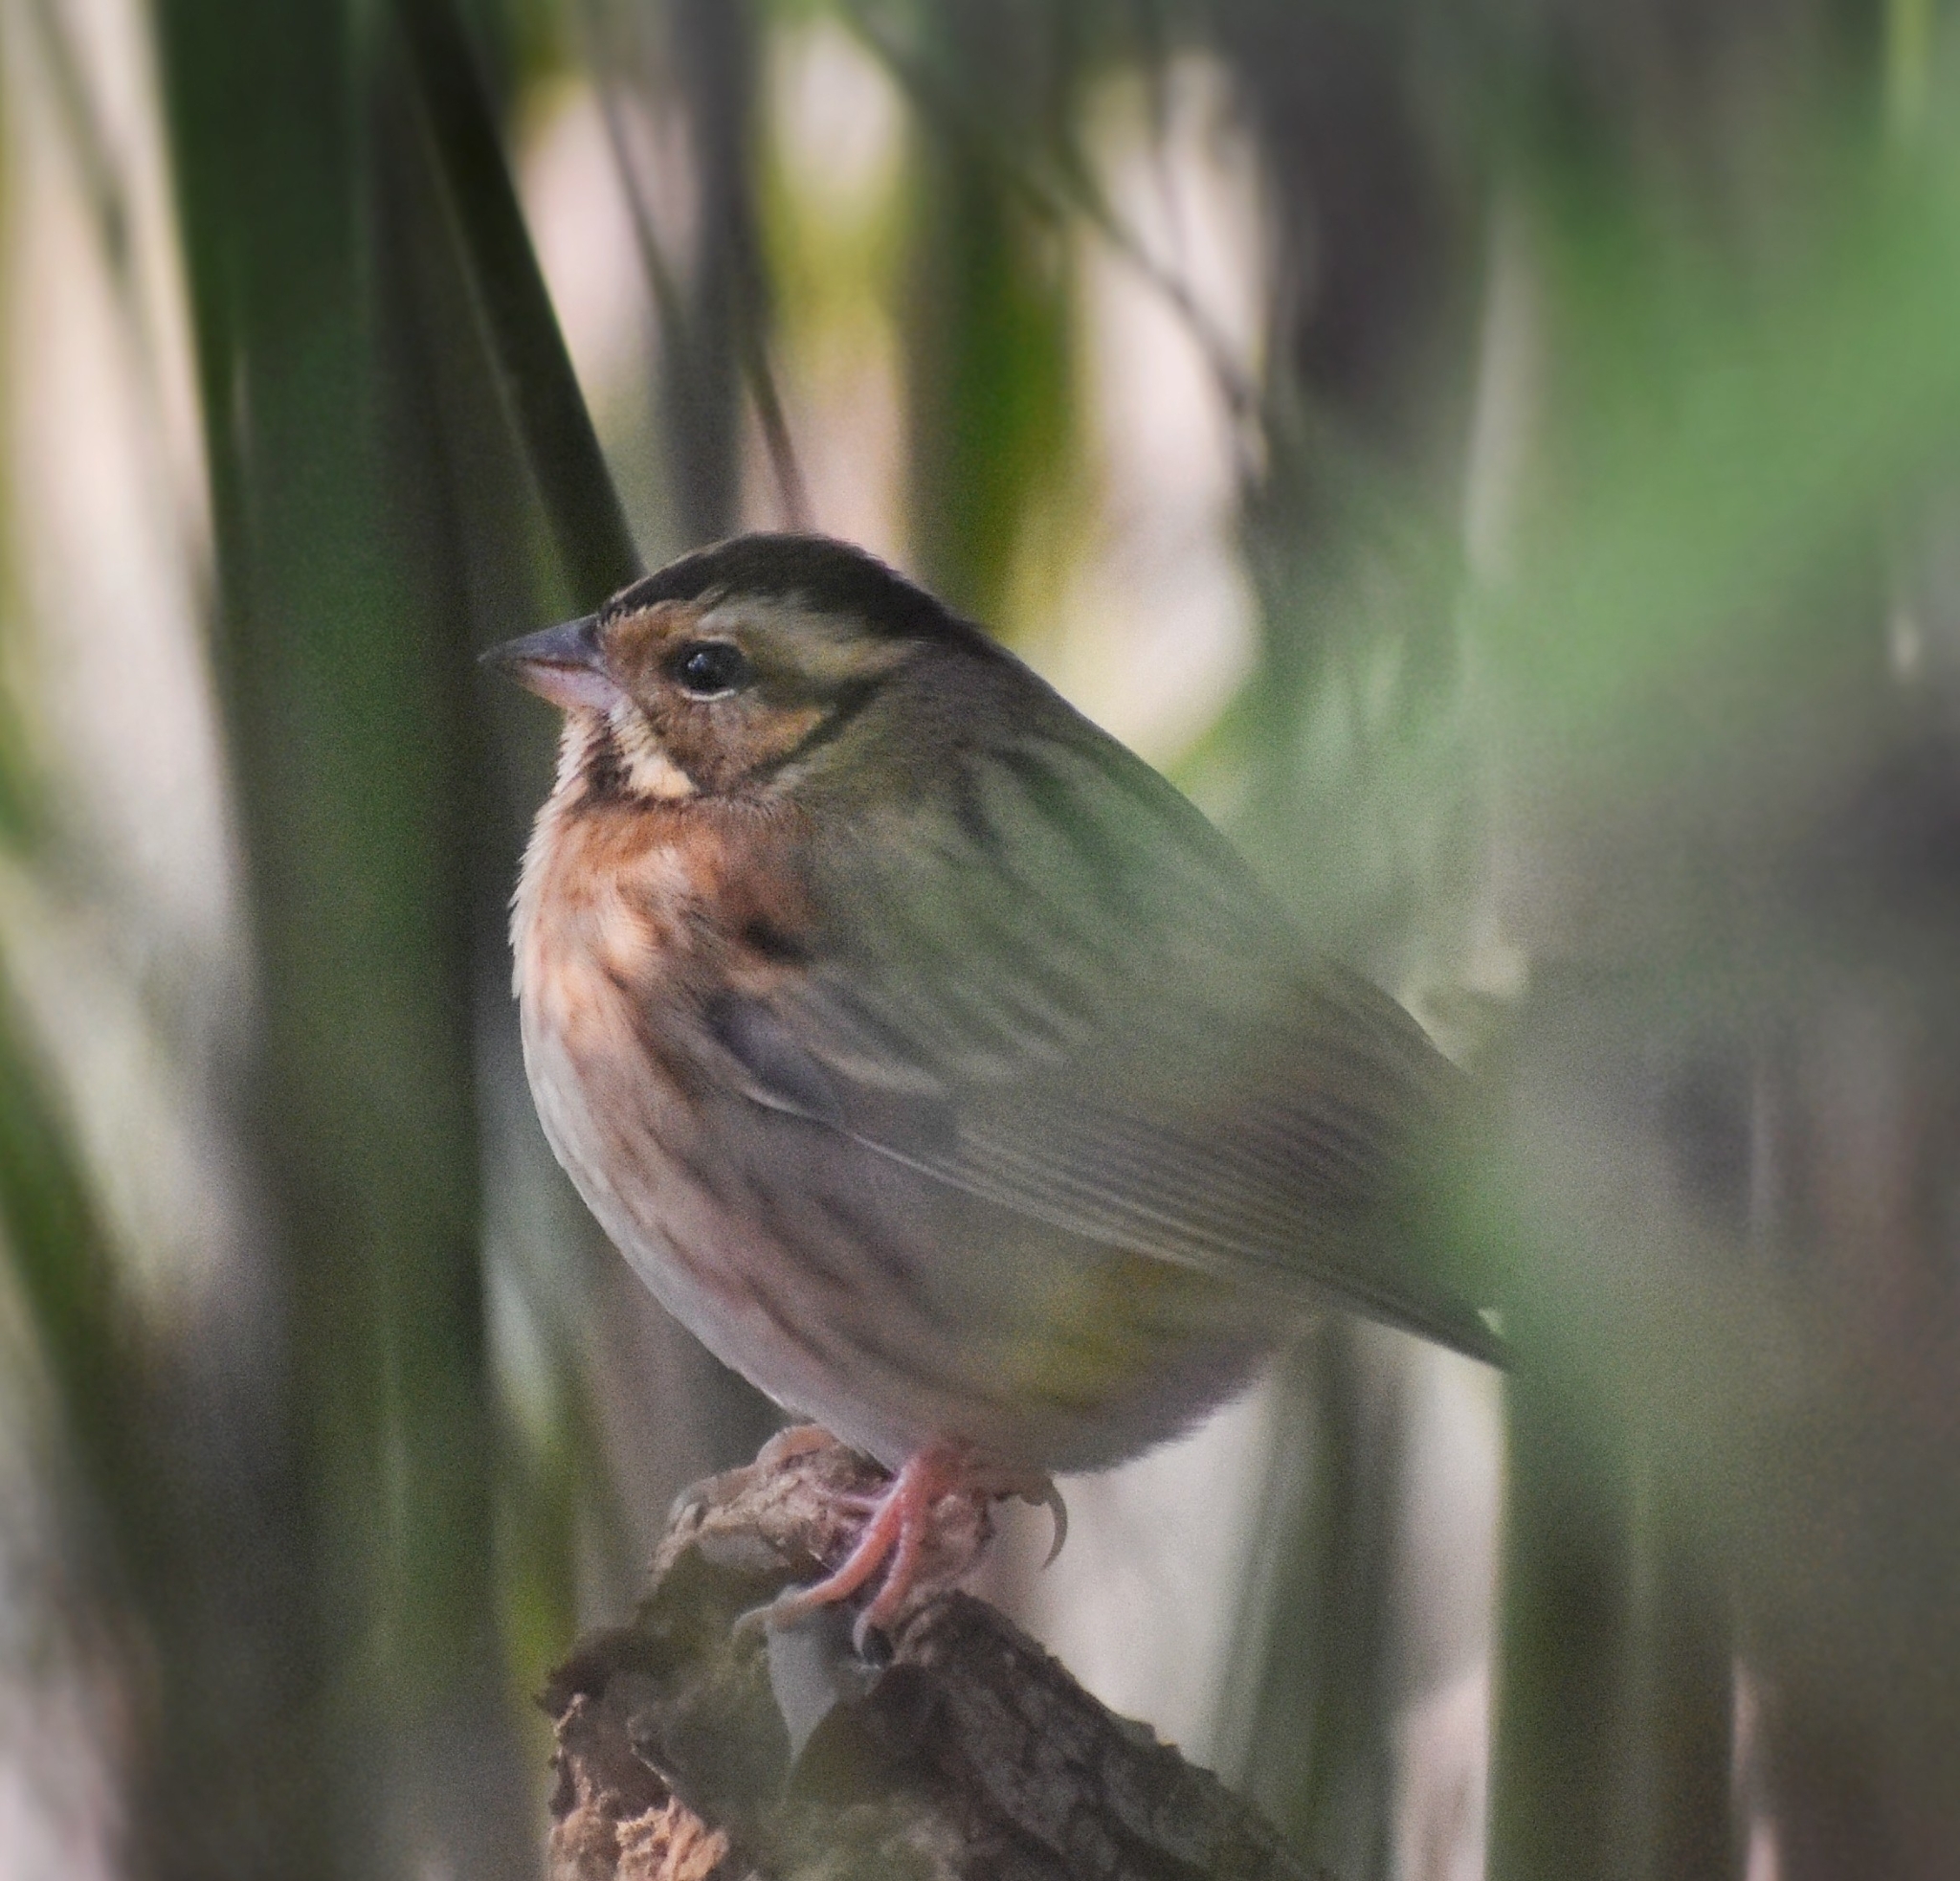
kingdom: Animalia
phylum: Chordata
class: Aves
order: Passeriformes
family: Emberizidae
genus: Emberiza
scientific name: Emberiza tristrami
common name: Tristram's bunting
